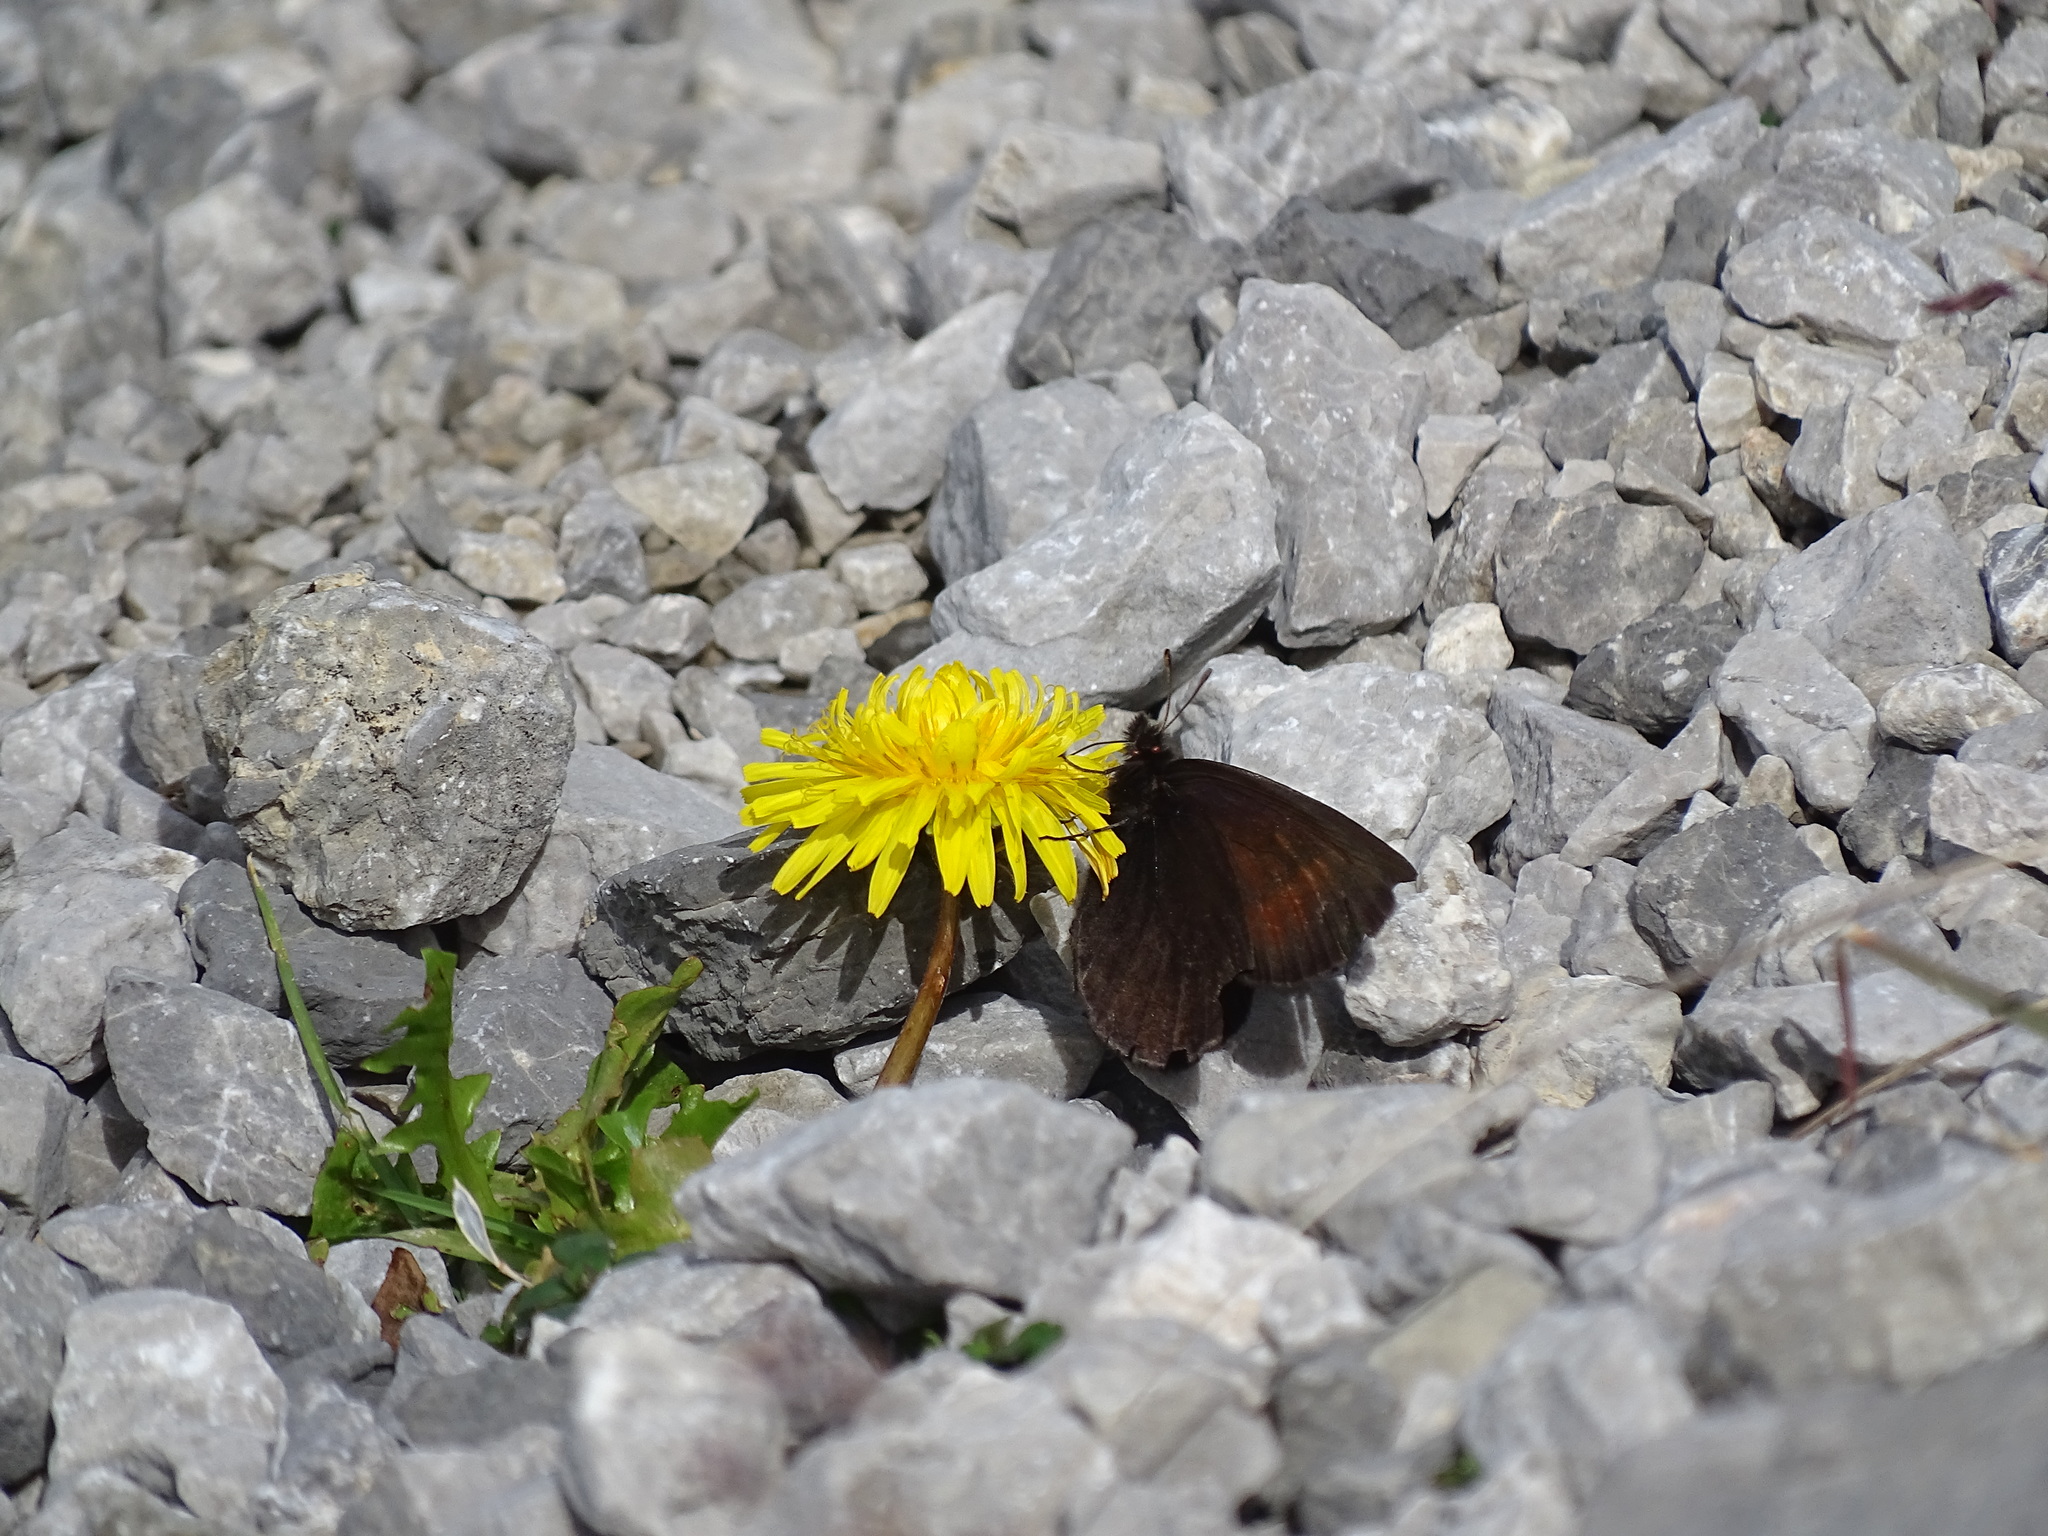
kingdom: Animalia
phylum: Arthropoda
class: Insecta
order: Lepidoptera
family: Nymphalidae
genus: Erebia
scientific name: Erebia pluto
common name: Sooty ringlet
